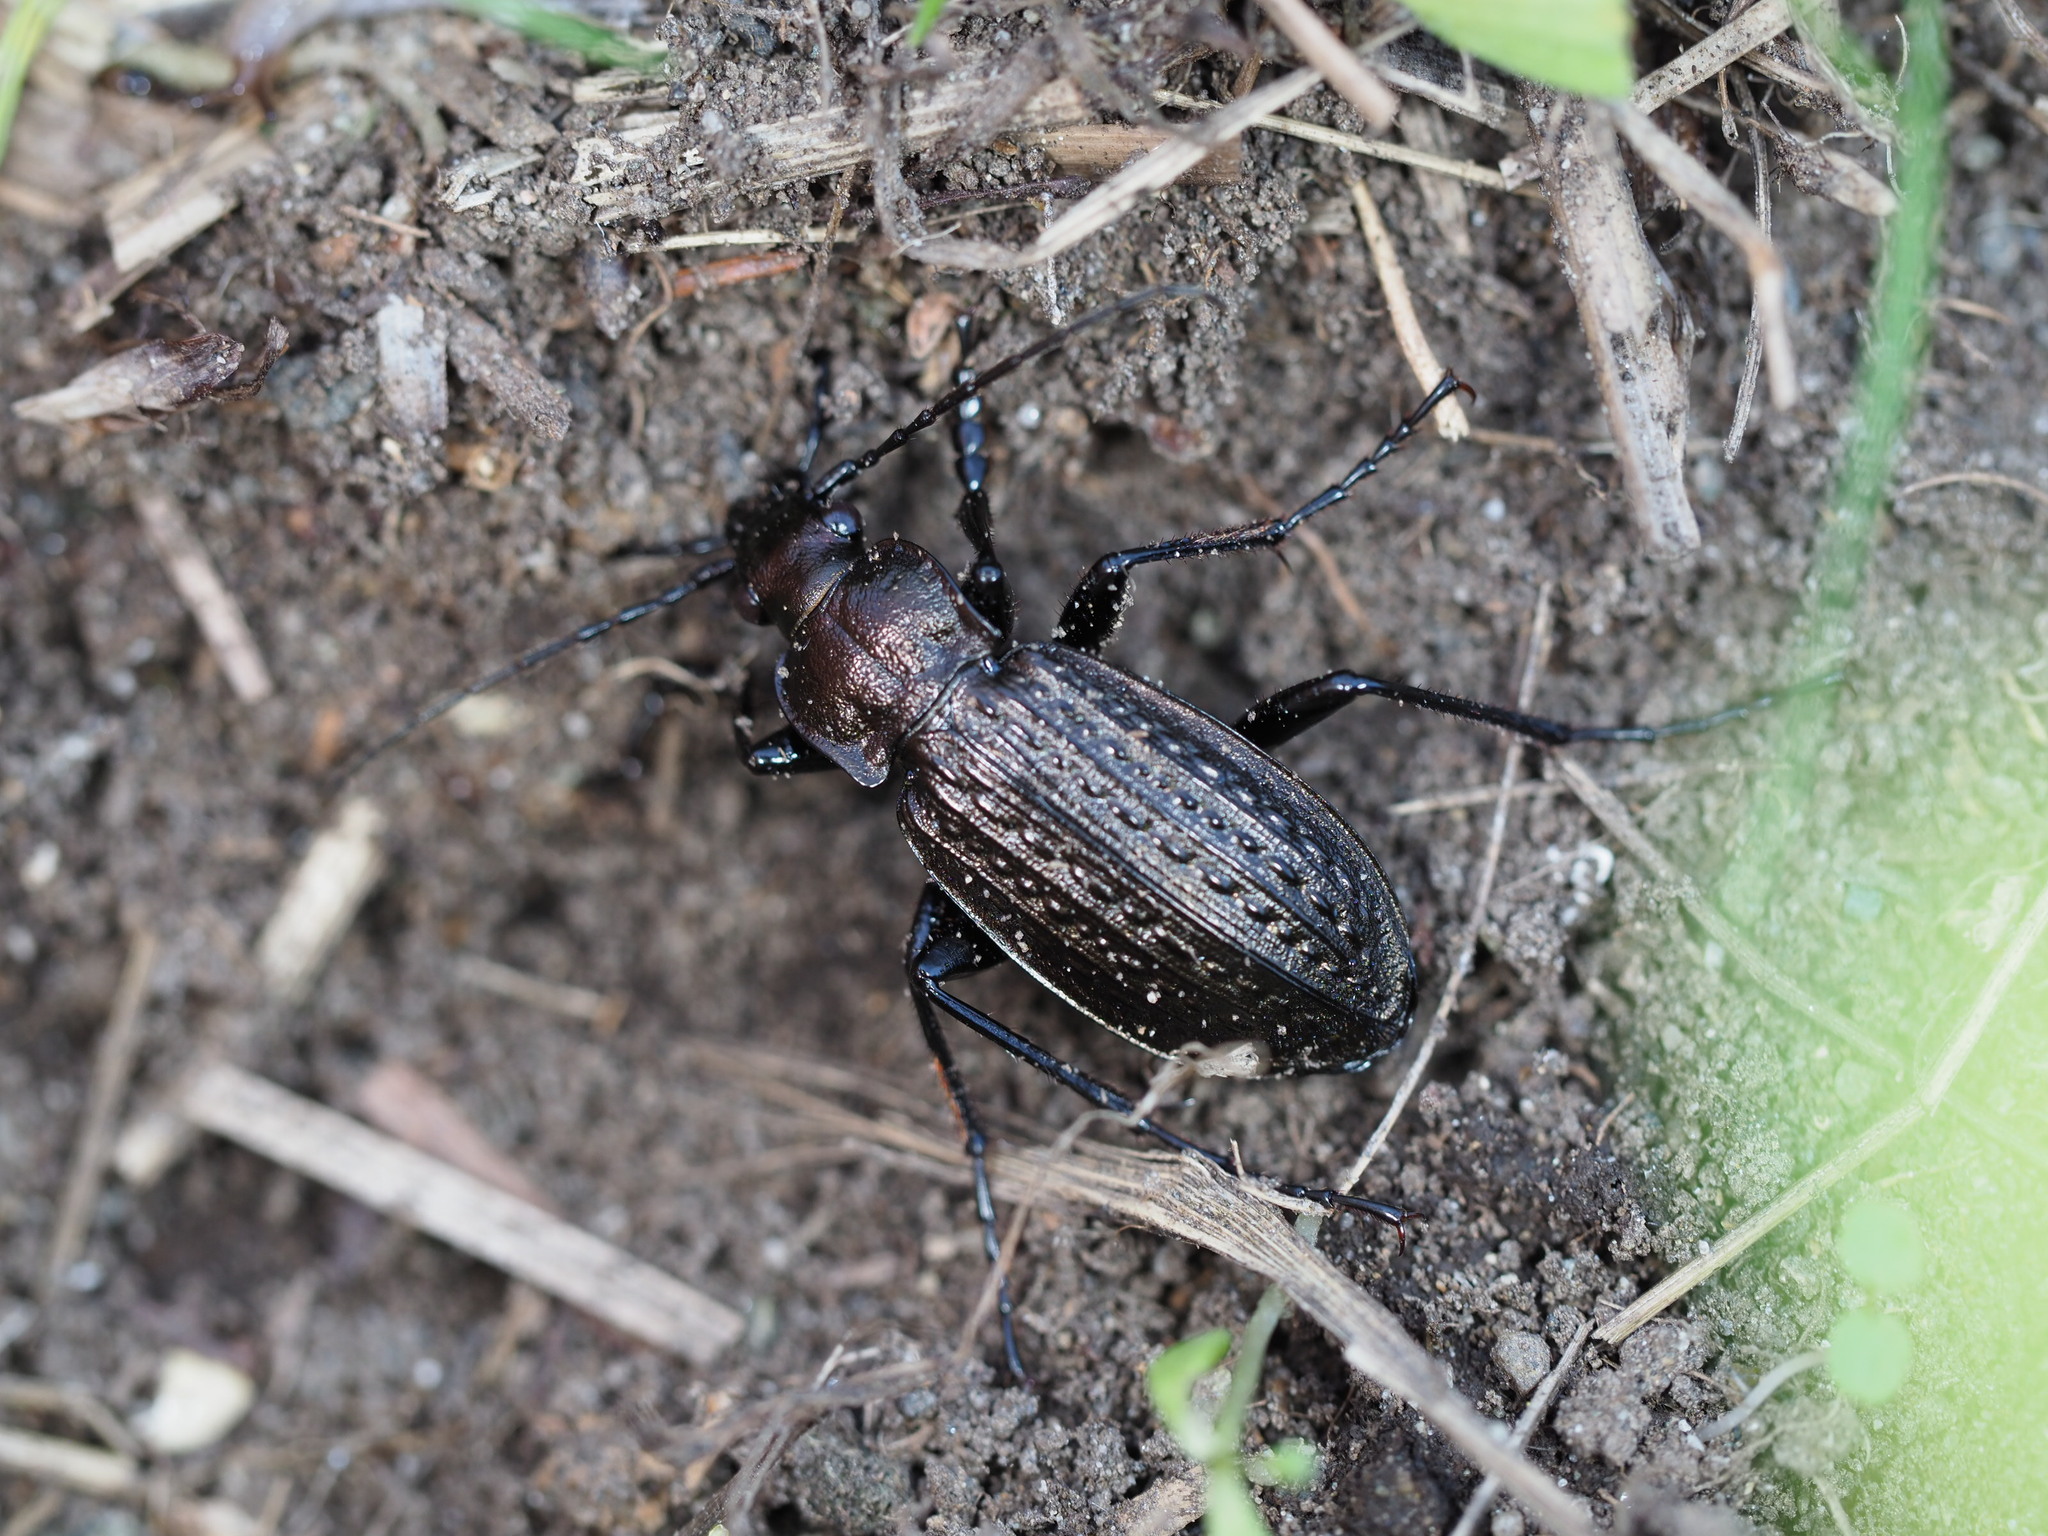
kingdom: Animalia
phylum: Arthropoda
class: Insecta
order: Coleoptera
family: Carabidae
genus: Carabus
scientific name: Carabus granulatus
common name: Granulate ground beetle
